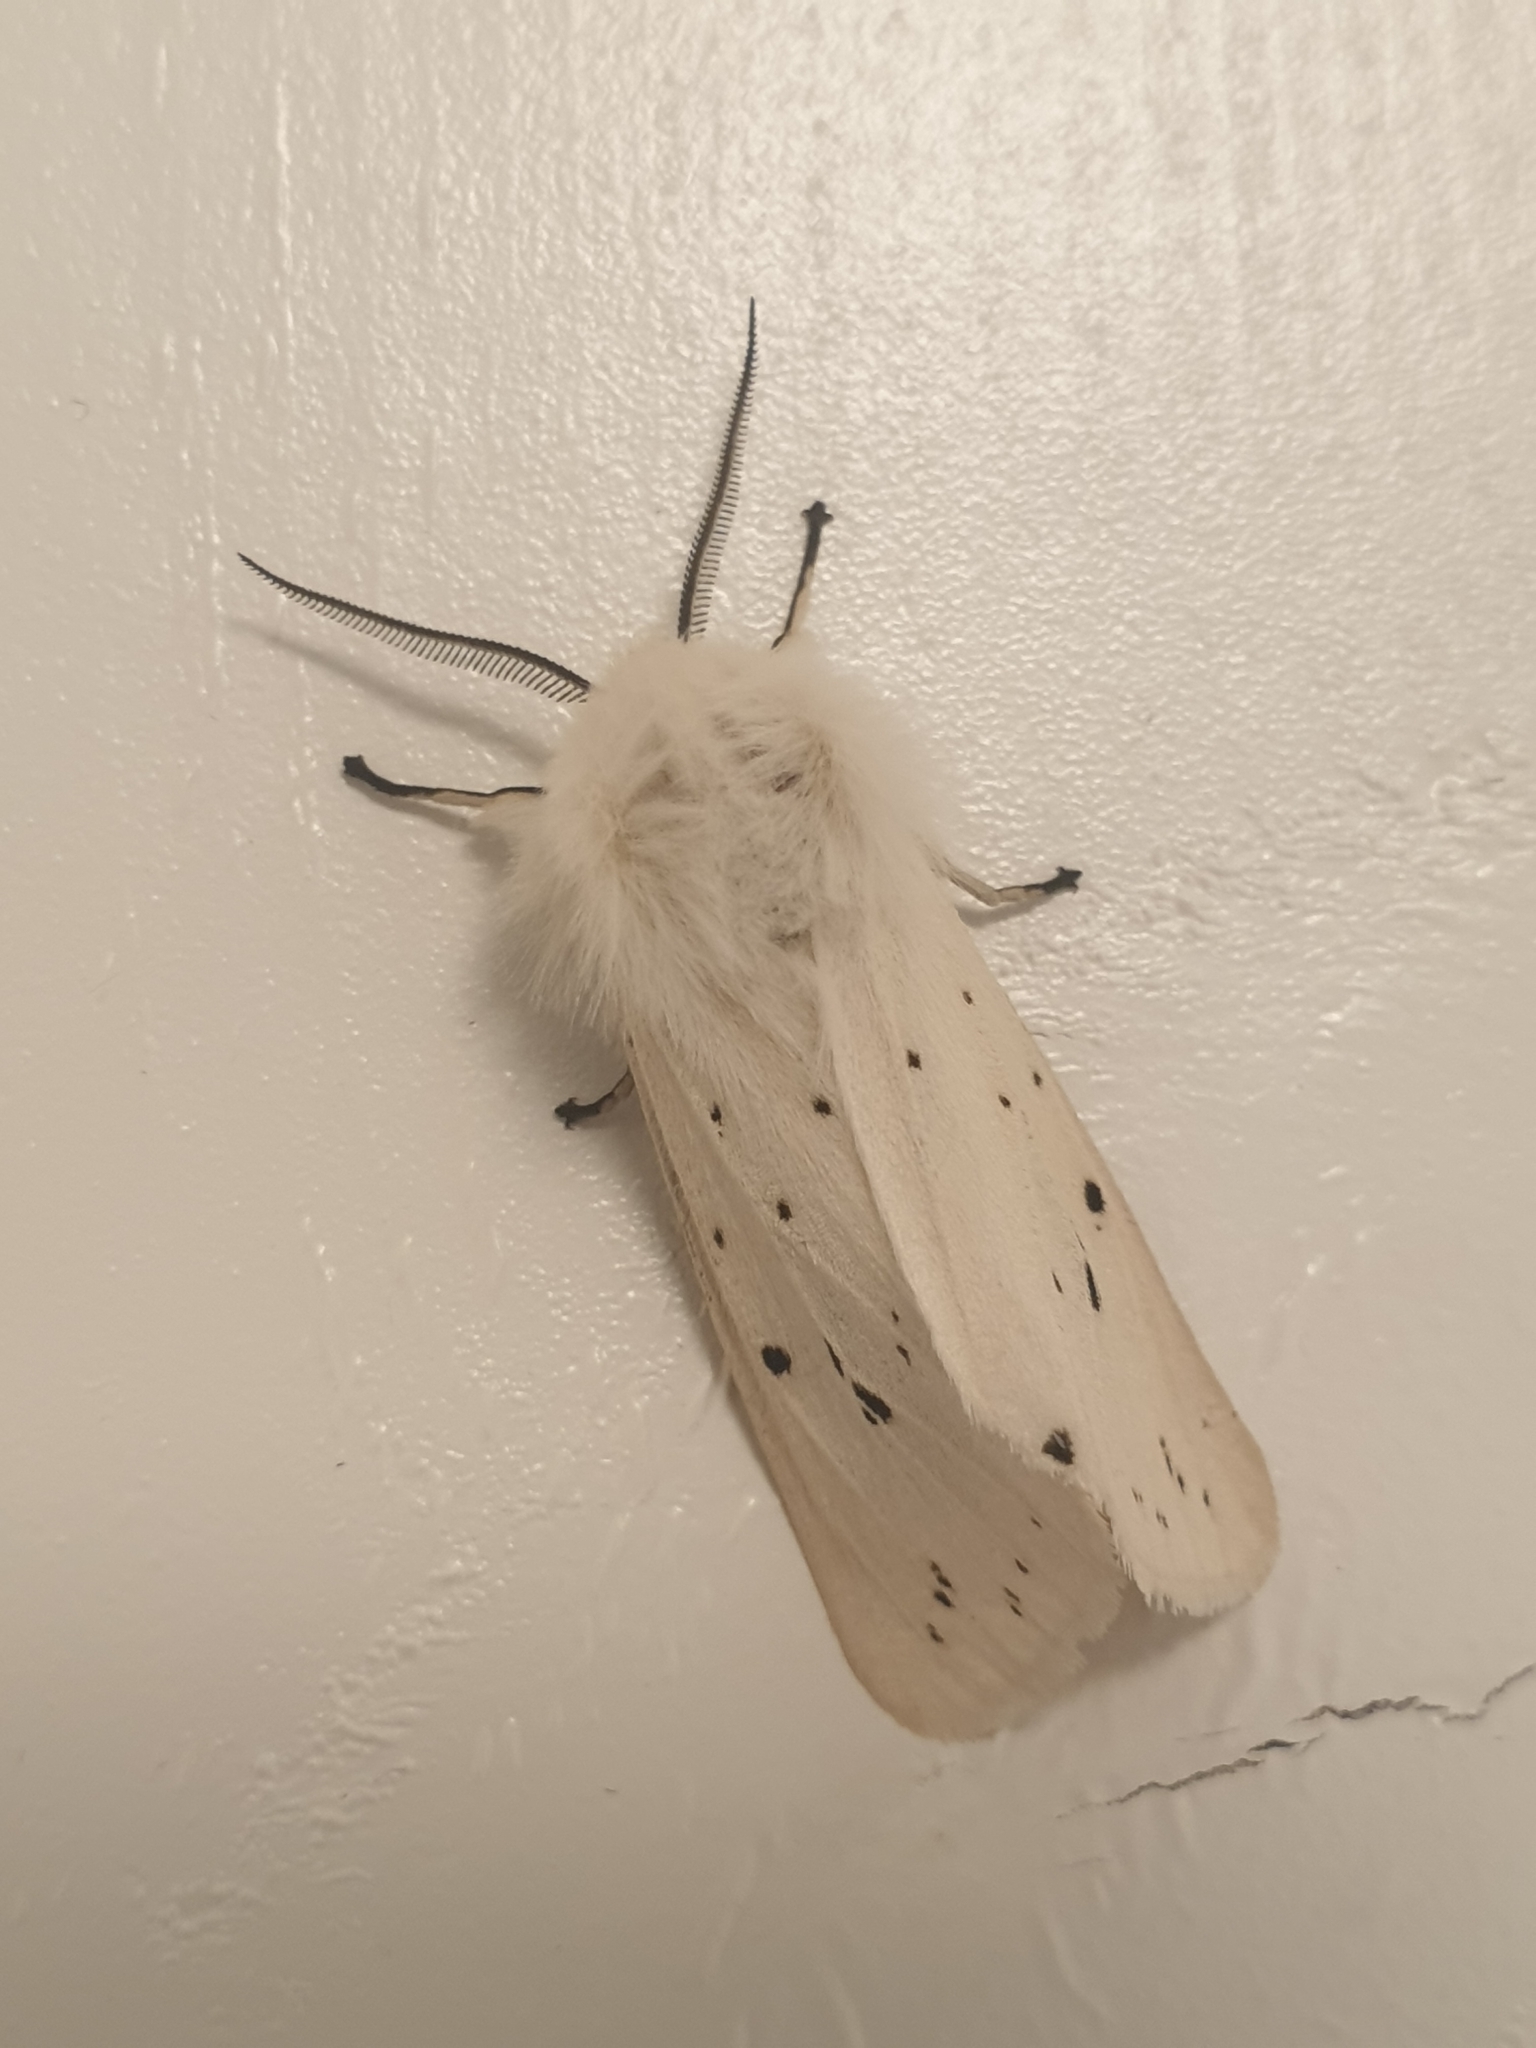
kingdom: Animalia
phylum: Arthropoda
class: Insecta
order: Lepidoptera
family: Erebidae
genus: Spilosoma
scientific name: Spilosoma lubricipeda
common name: White ermine
